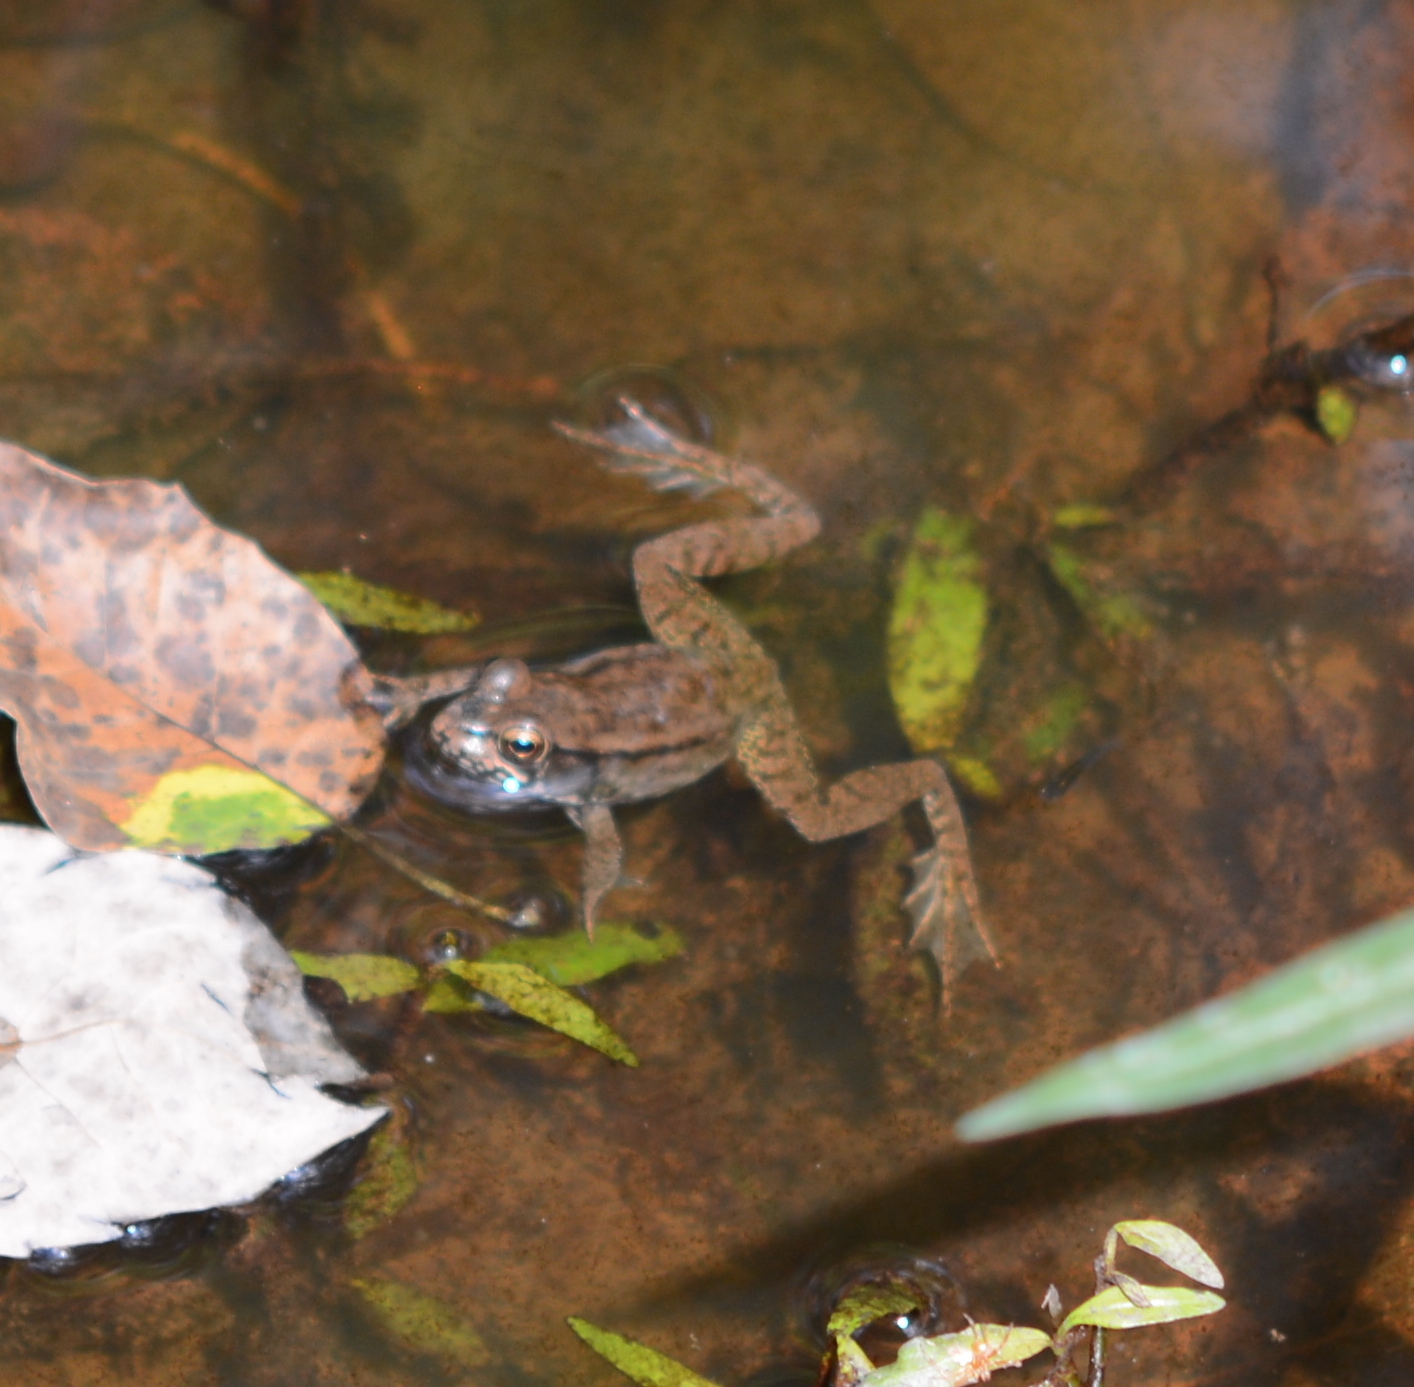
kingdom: Animalia
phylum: Chordata
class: Amphibia
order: Anura
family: Ranidae
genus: Lithobates
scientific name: Lithobates clamitans
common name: Green frog
